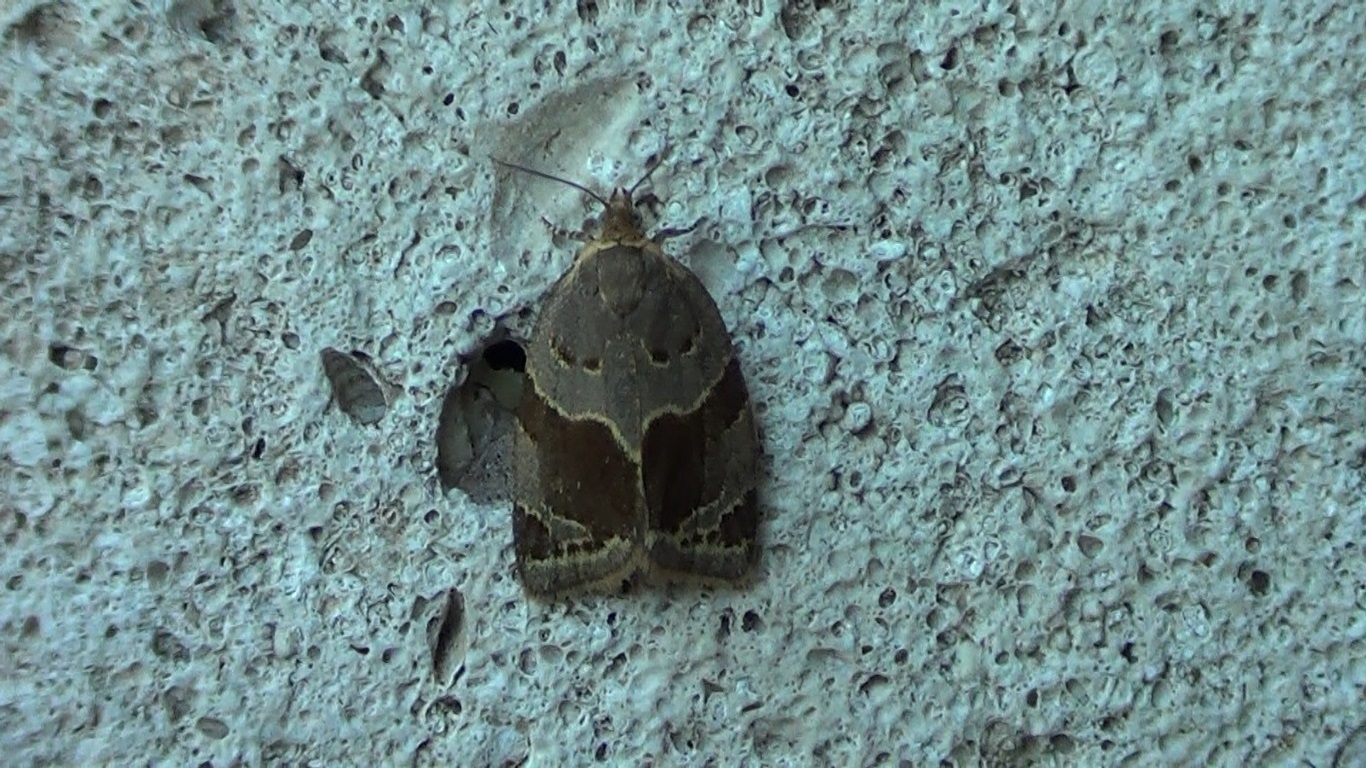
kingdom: Animalia
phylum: Arthropoda
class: Insecta
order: Lepidoptera
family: Tortricidae
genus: Clepsis
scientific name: Clepsis dumicolana
